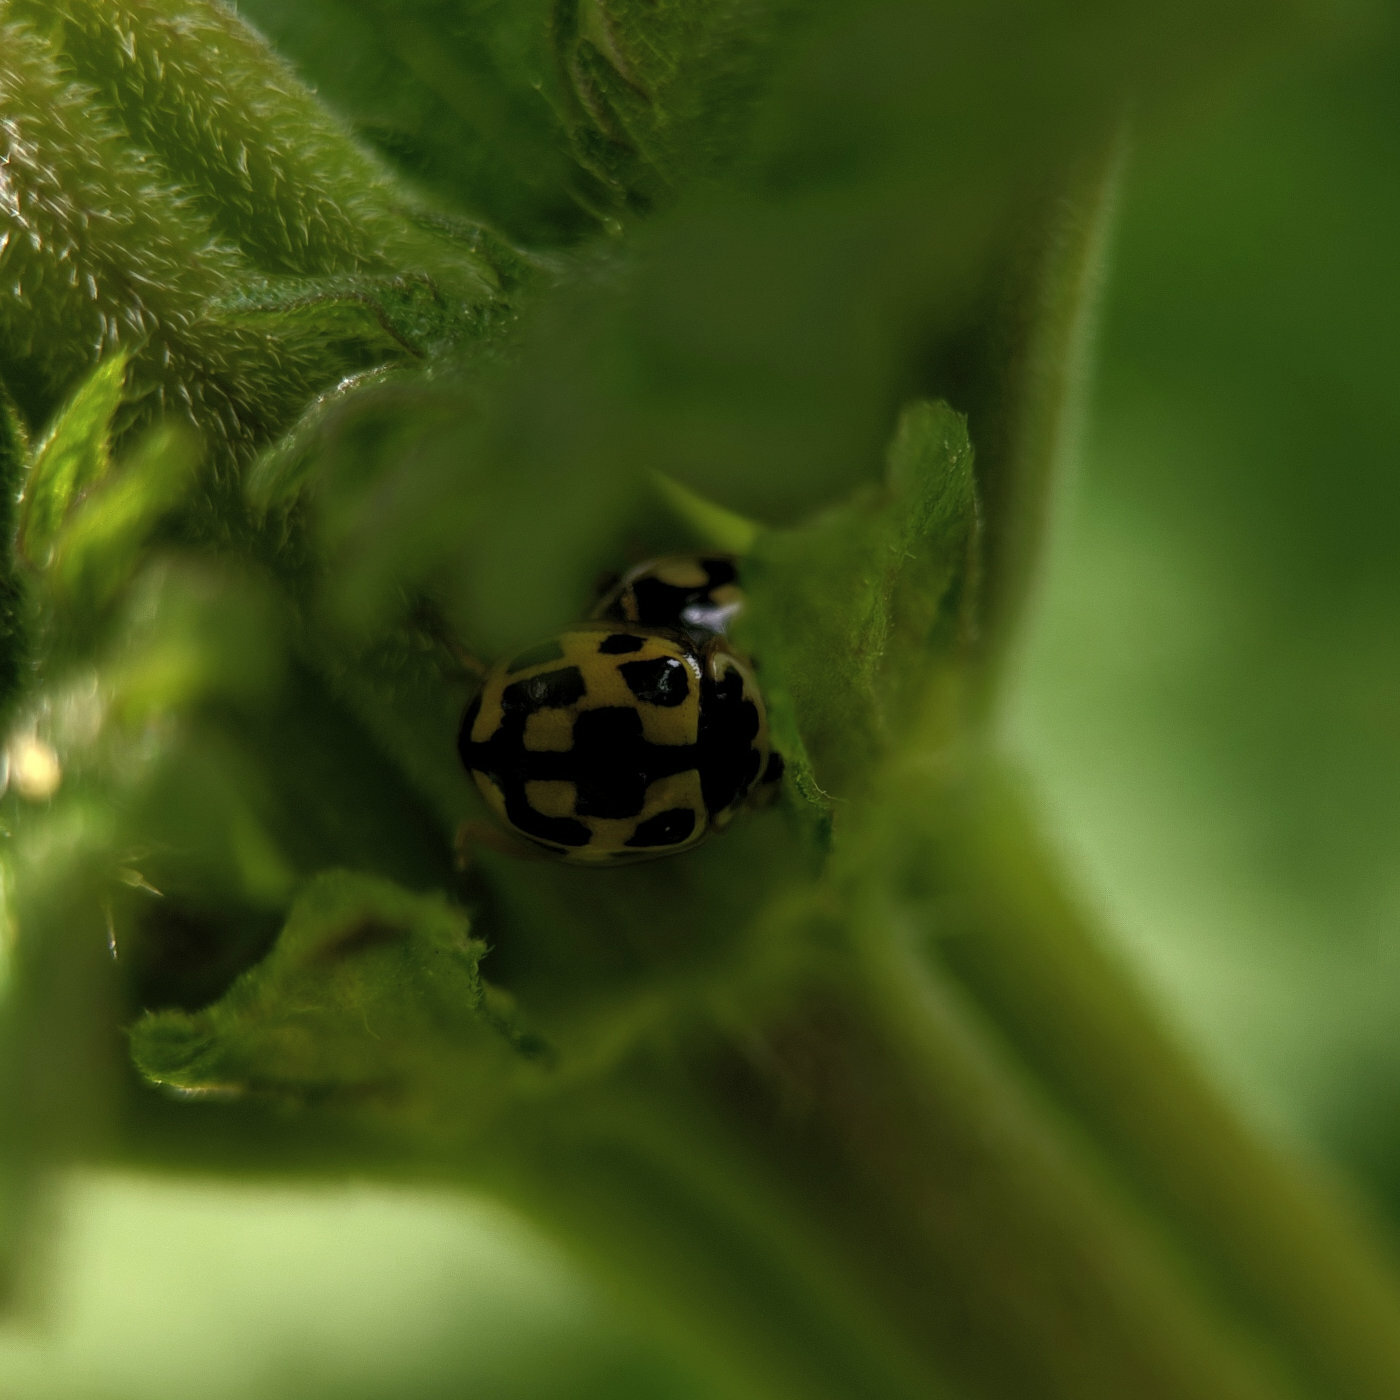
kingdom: Animalia
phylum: Arthropoda
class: Insecta
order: Coleoptera
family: Coccinellidae
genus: Propylaea
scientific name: Propylaea quatuordecimpunctata
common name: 14-spotted ladybird beetle
